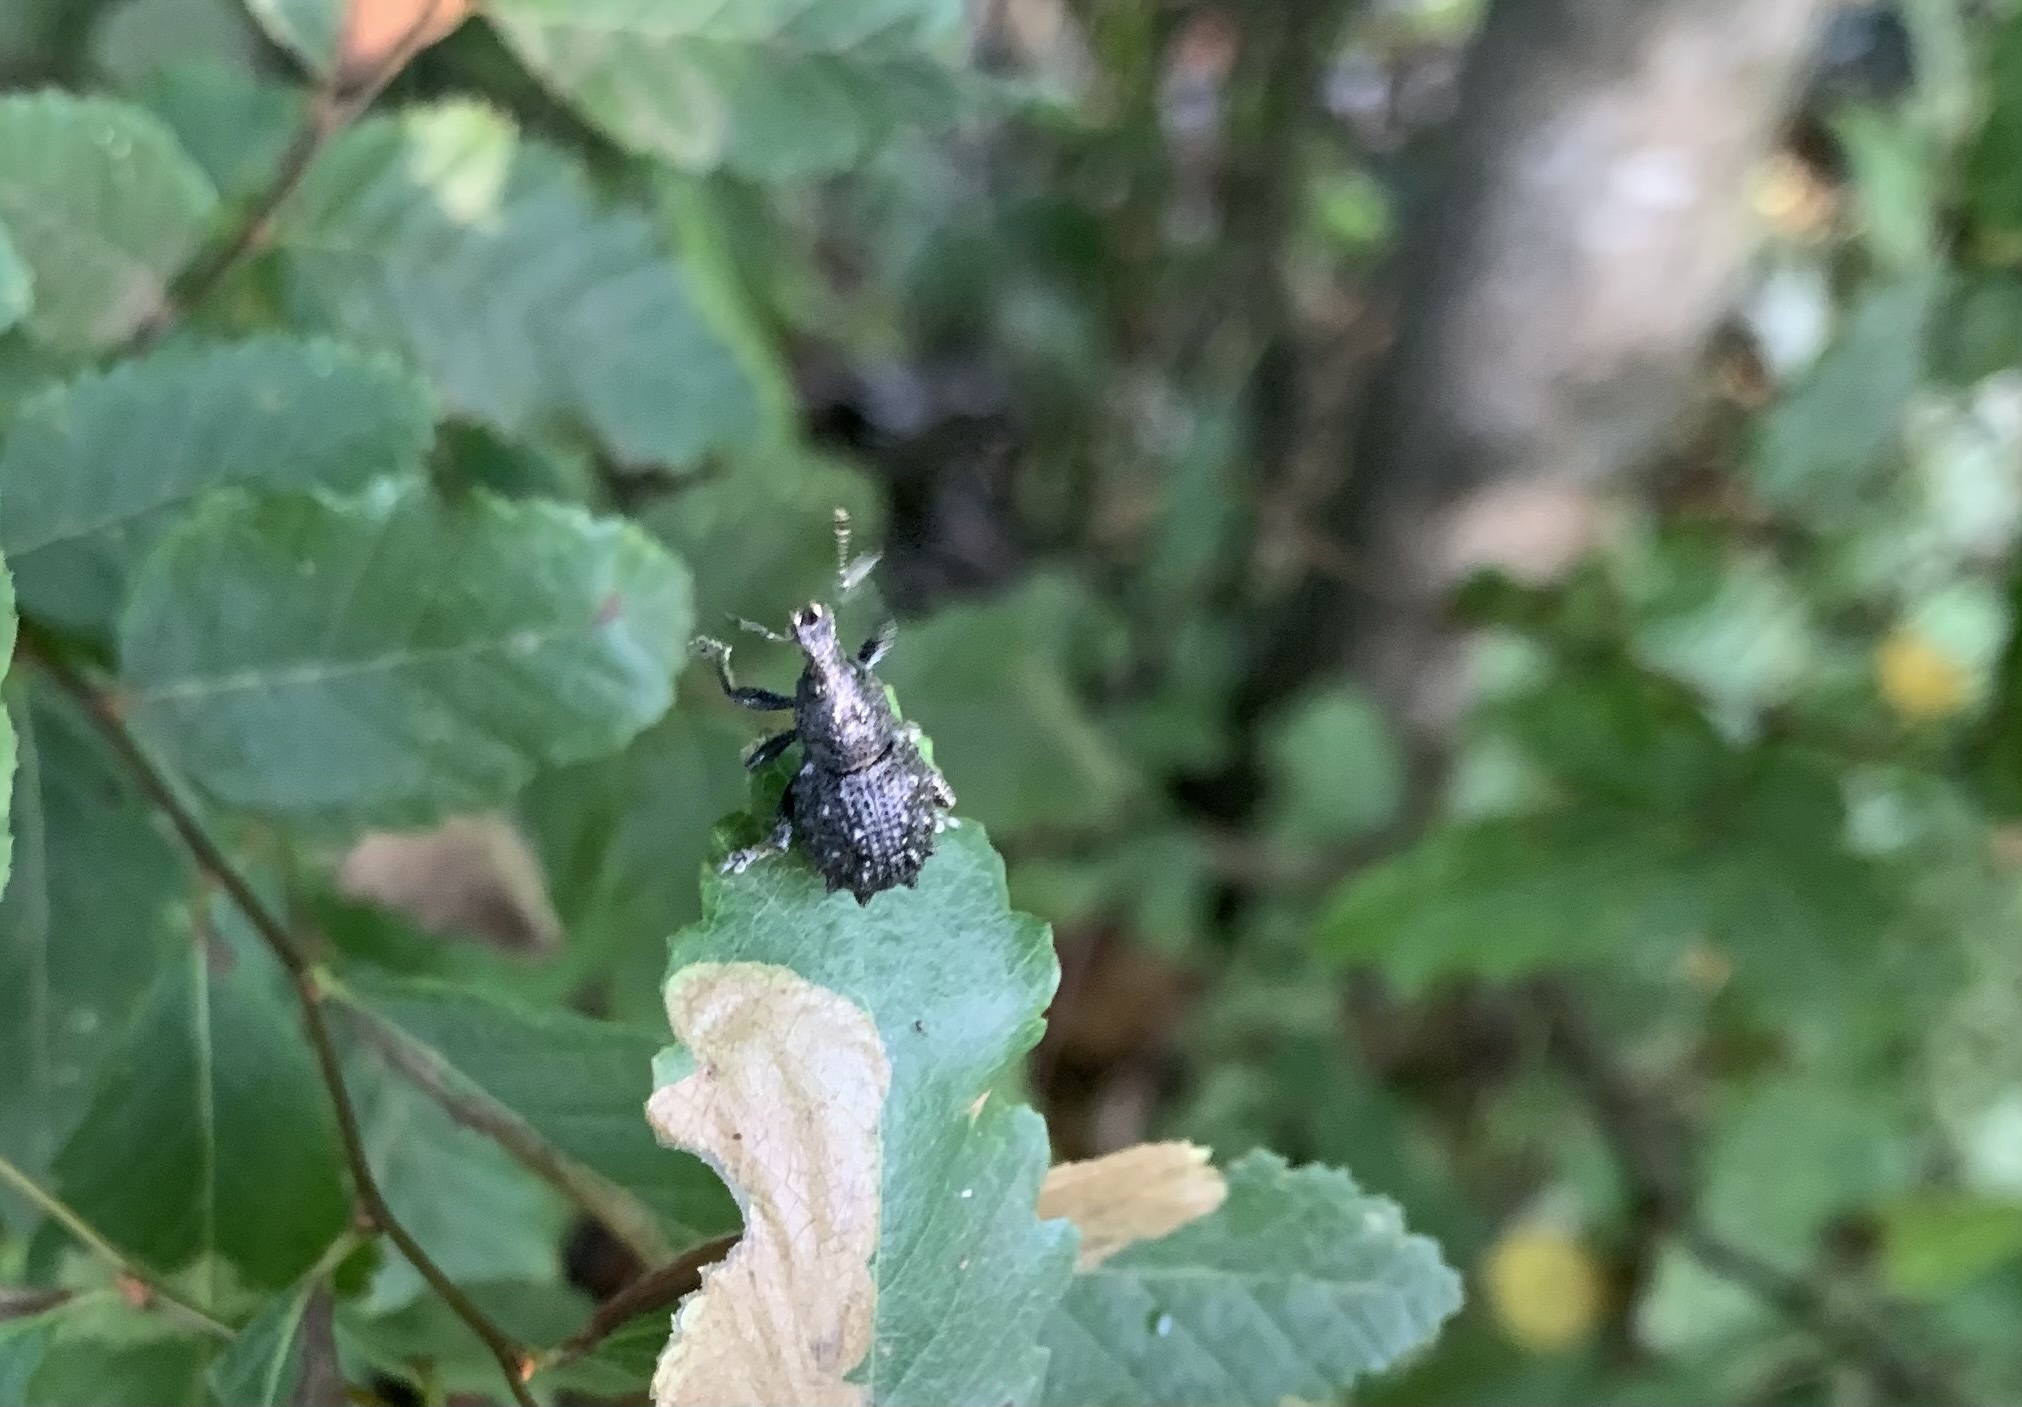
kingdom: Animalia
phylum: Arthropoda
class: Insecta
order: Coleoptera
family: Curculionidae
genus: Megalometis
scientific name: Megalometis spiniferus
